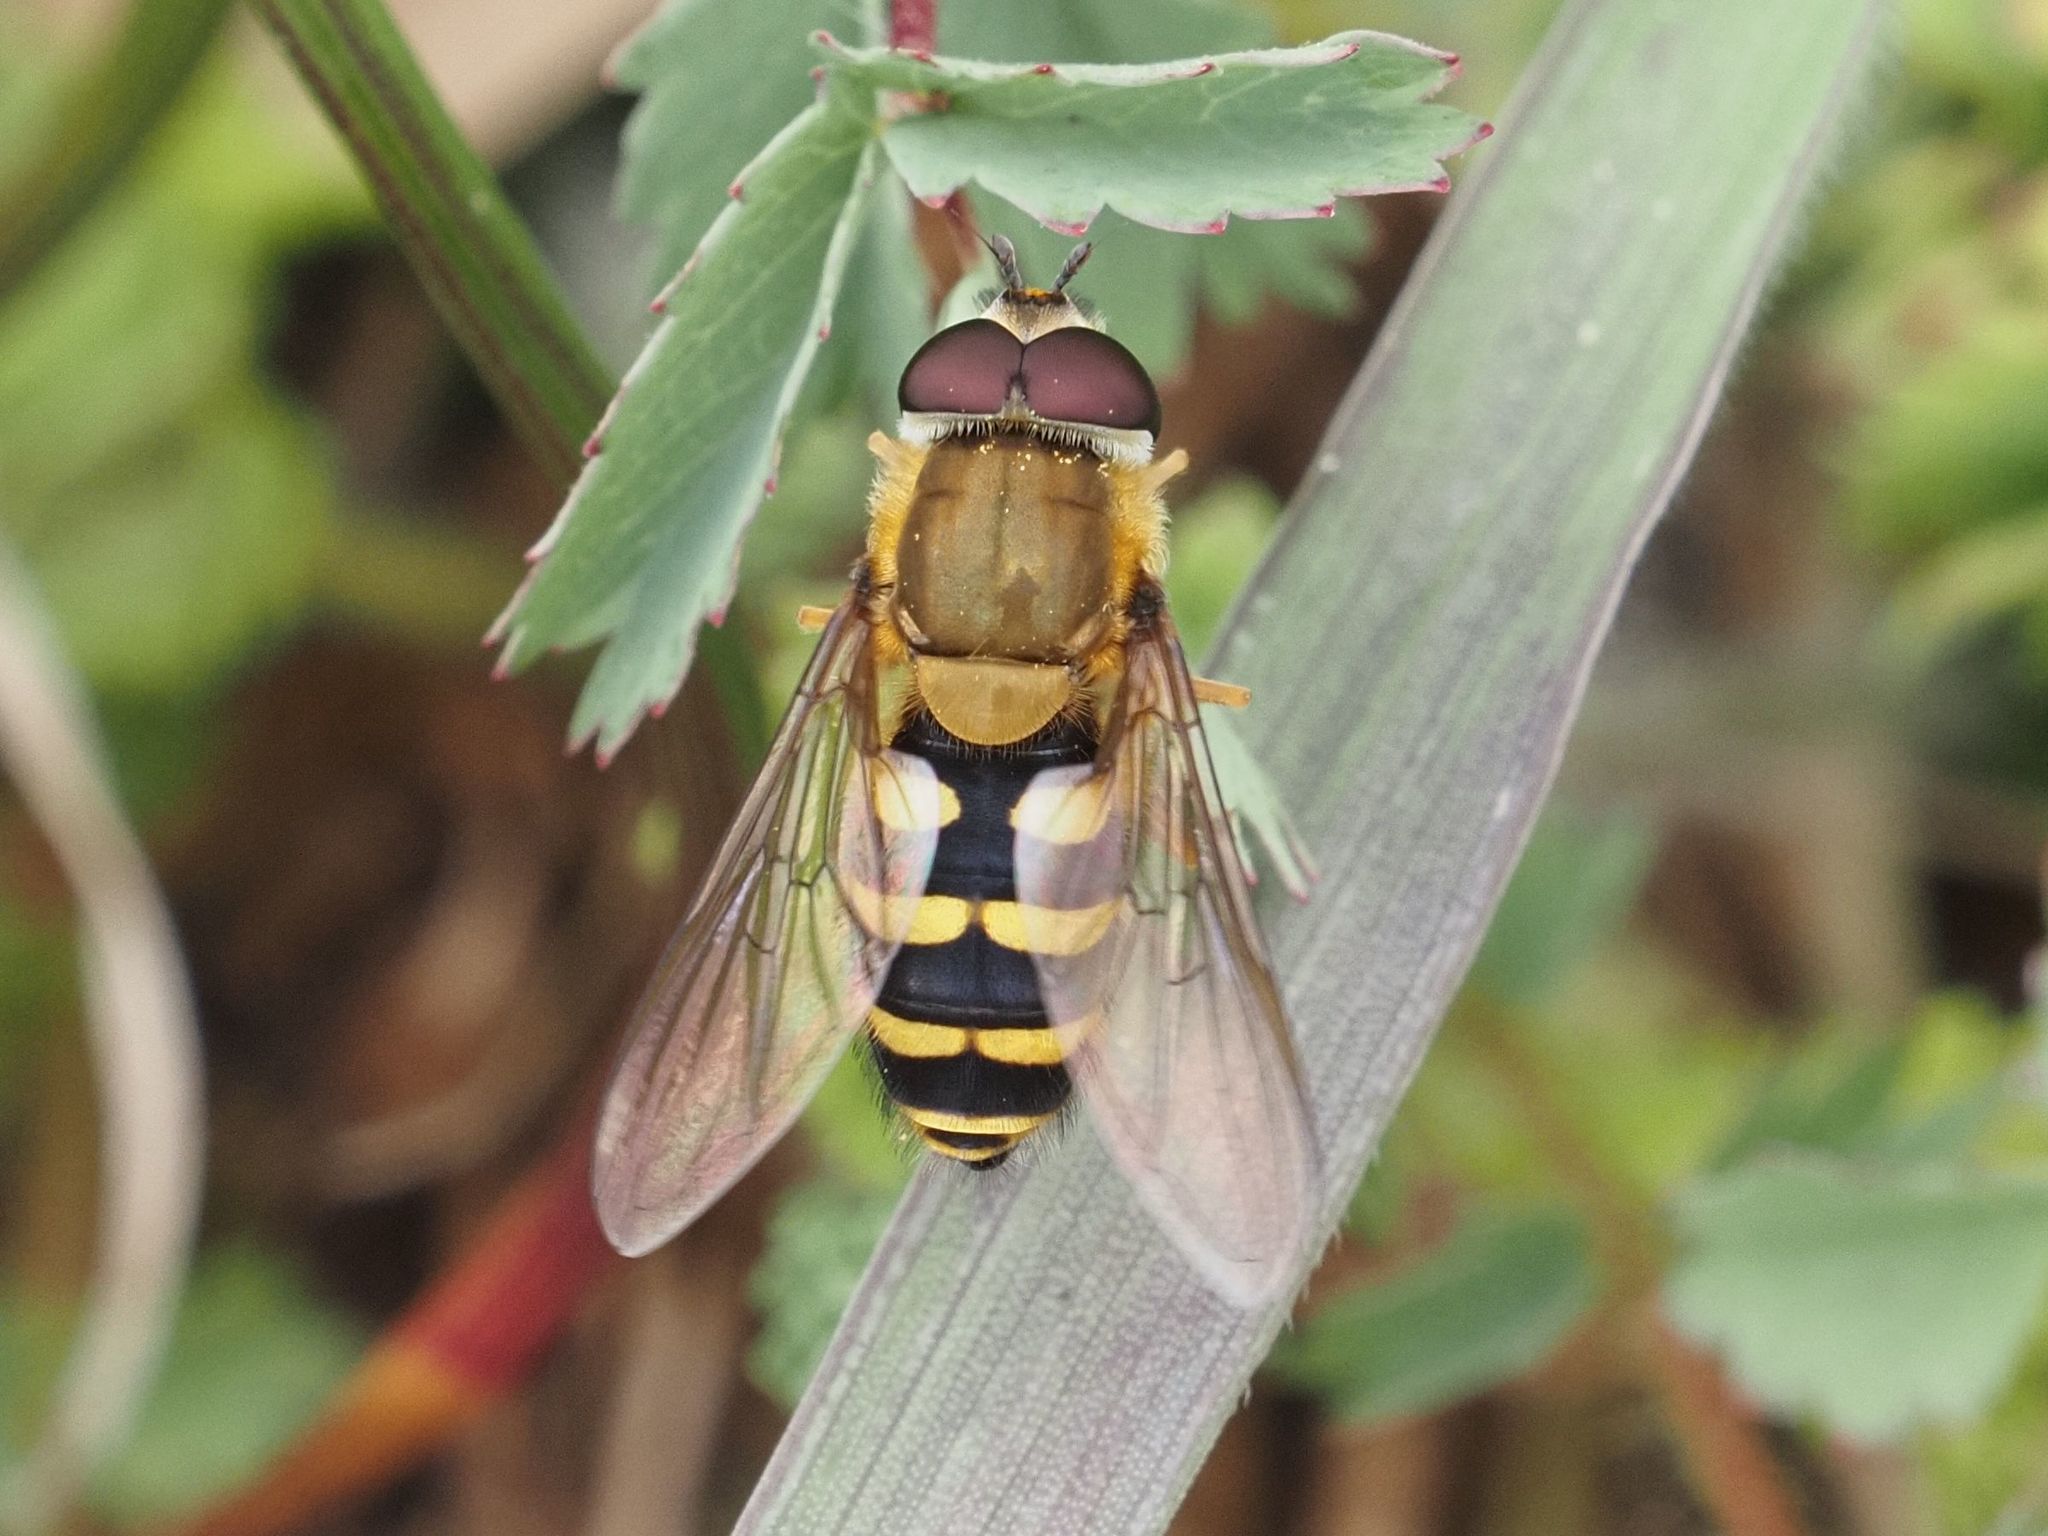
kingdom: Animalia
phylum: Arthropoda
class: Insecta
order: Diptera
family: Syrphidae
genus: Syrphus
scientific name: Syrphus
